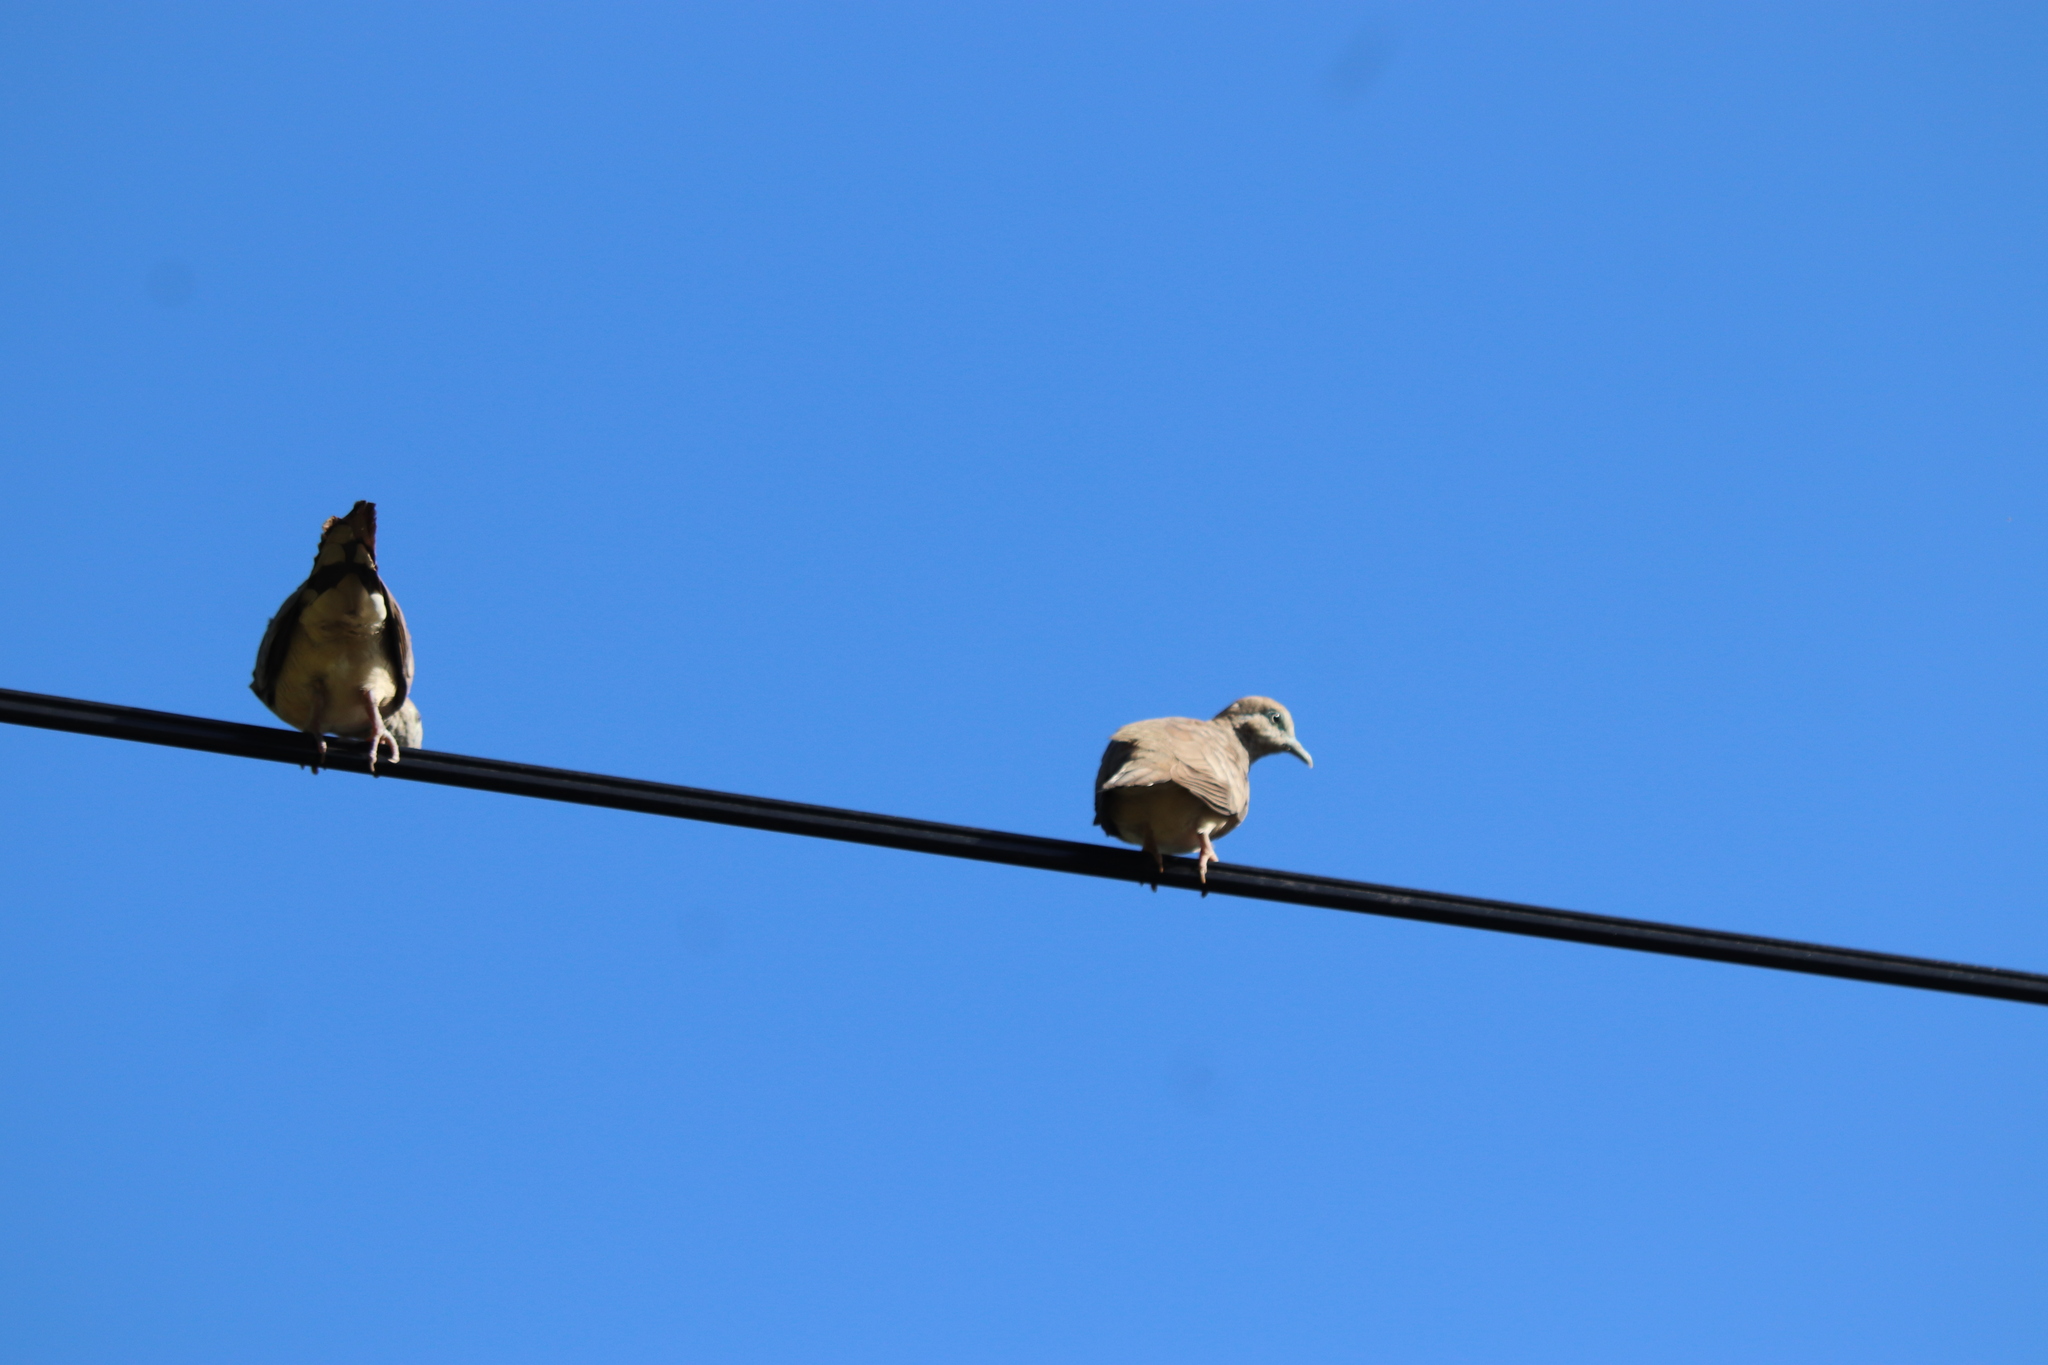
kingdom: Animalia
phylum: Chordata
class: Aves
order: Columbiformes
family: Columbidae
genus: Geopelia
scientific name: Geopelia striata
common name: Zebra dove
